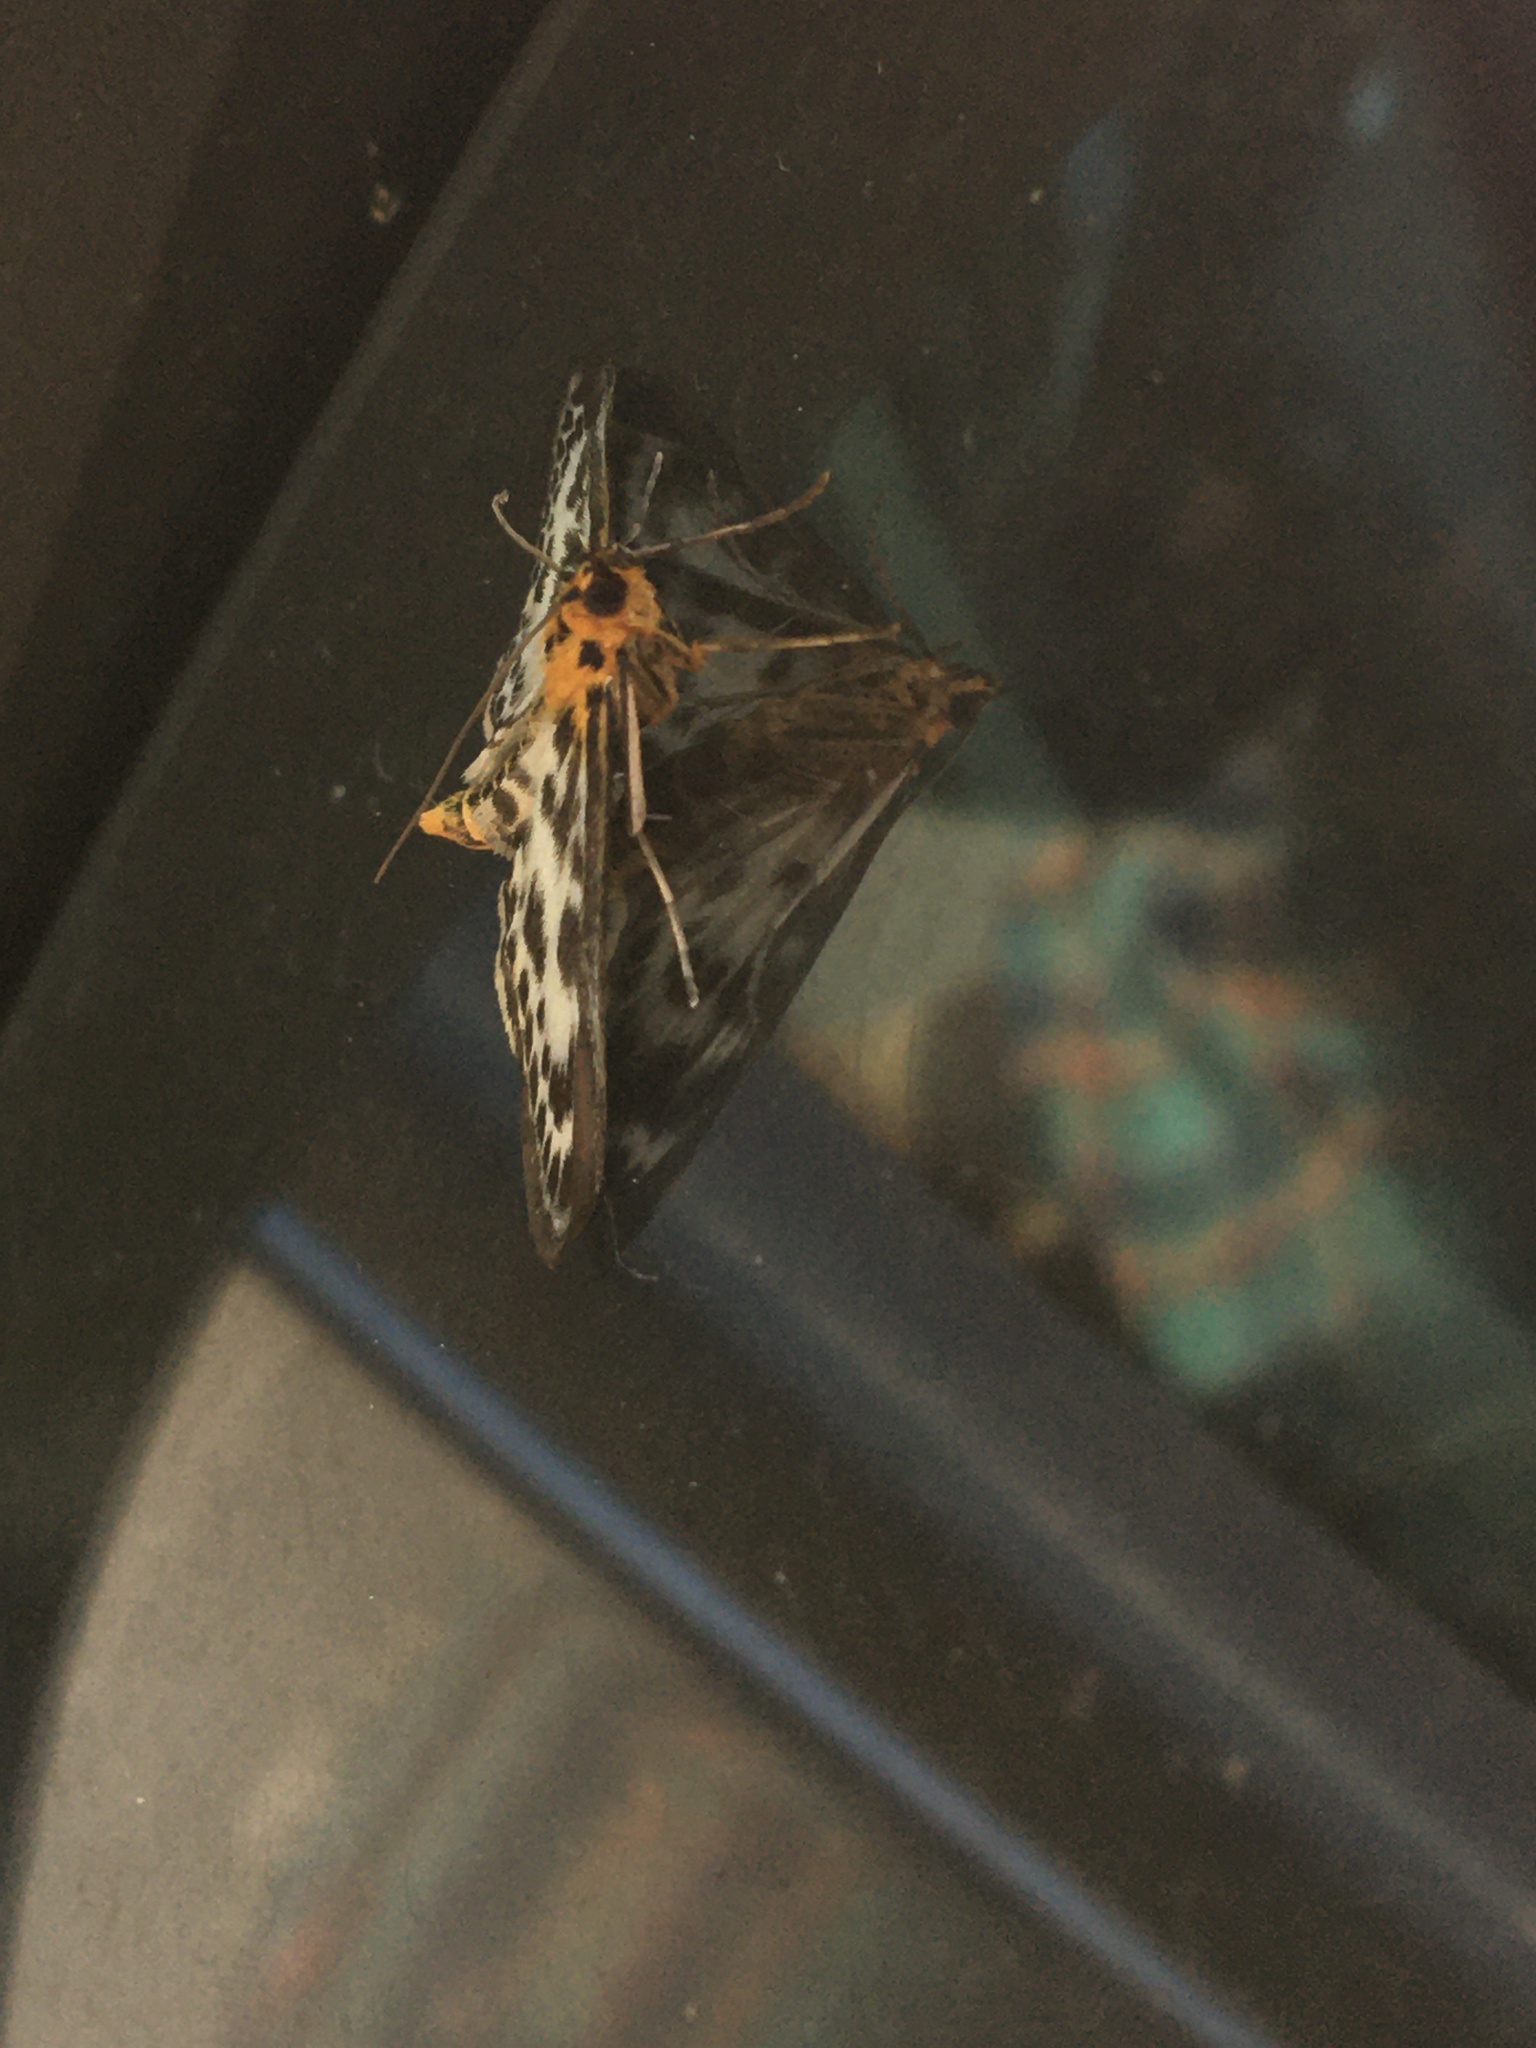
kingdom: Animalia
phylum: Arthropoda
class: Insecta
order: Lepidoptera
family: Crambidae
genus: Anania
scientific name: Anania hortulata
